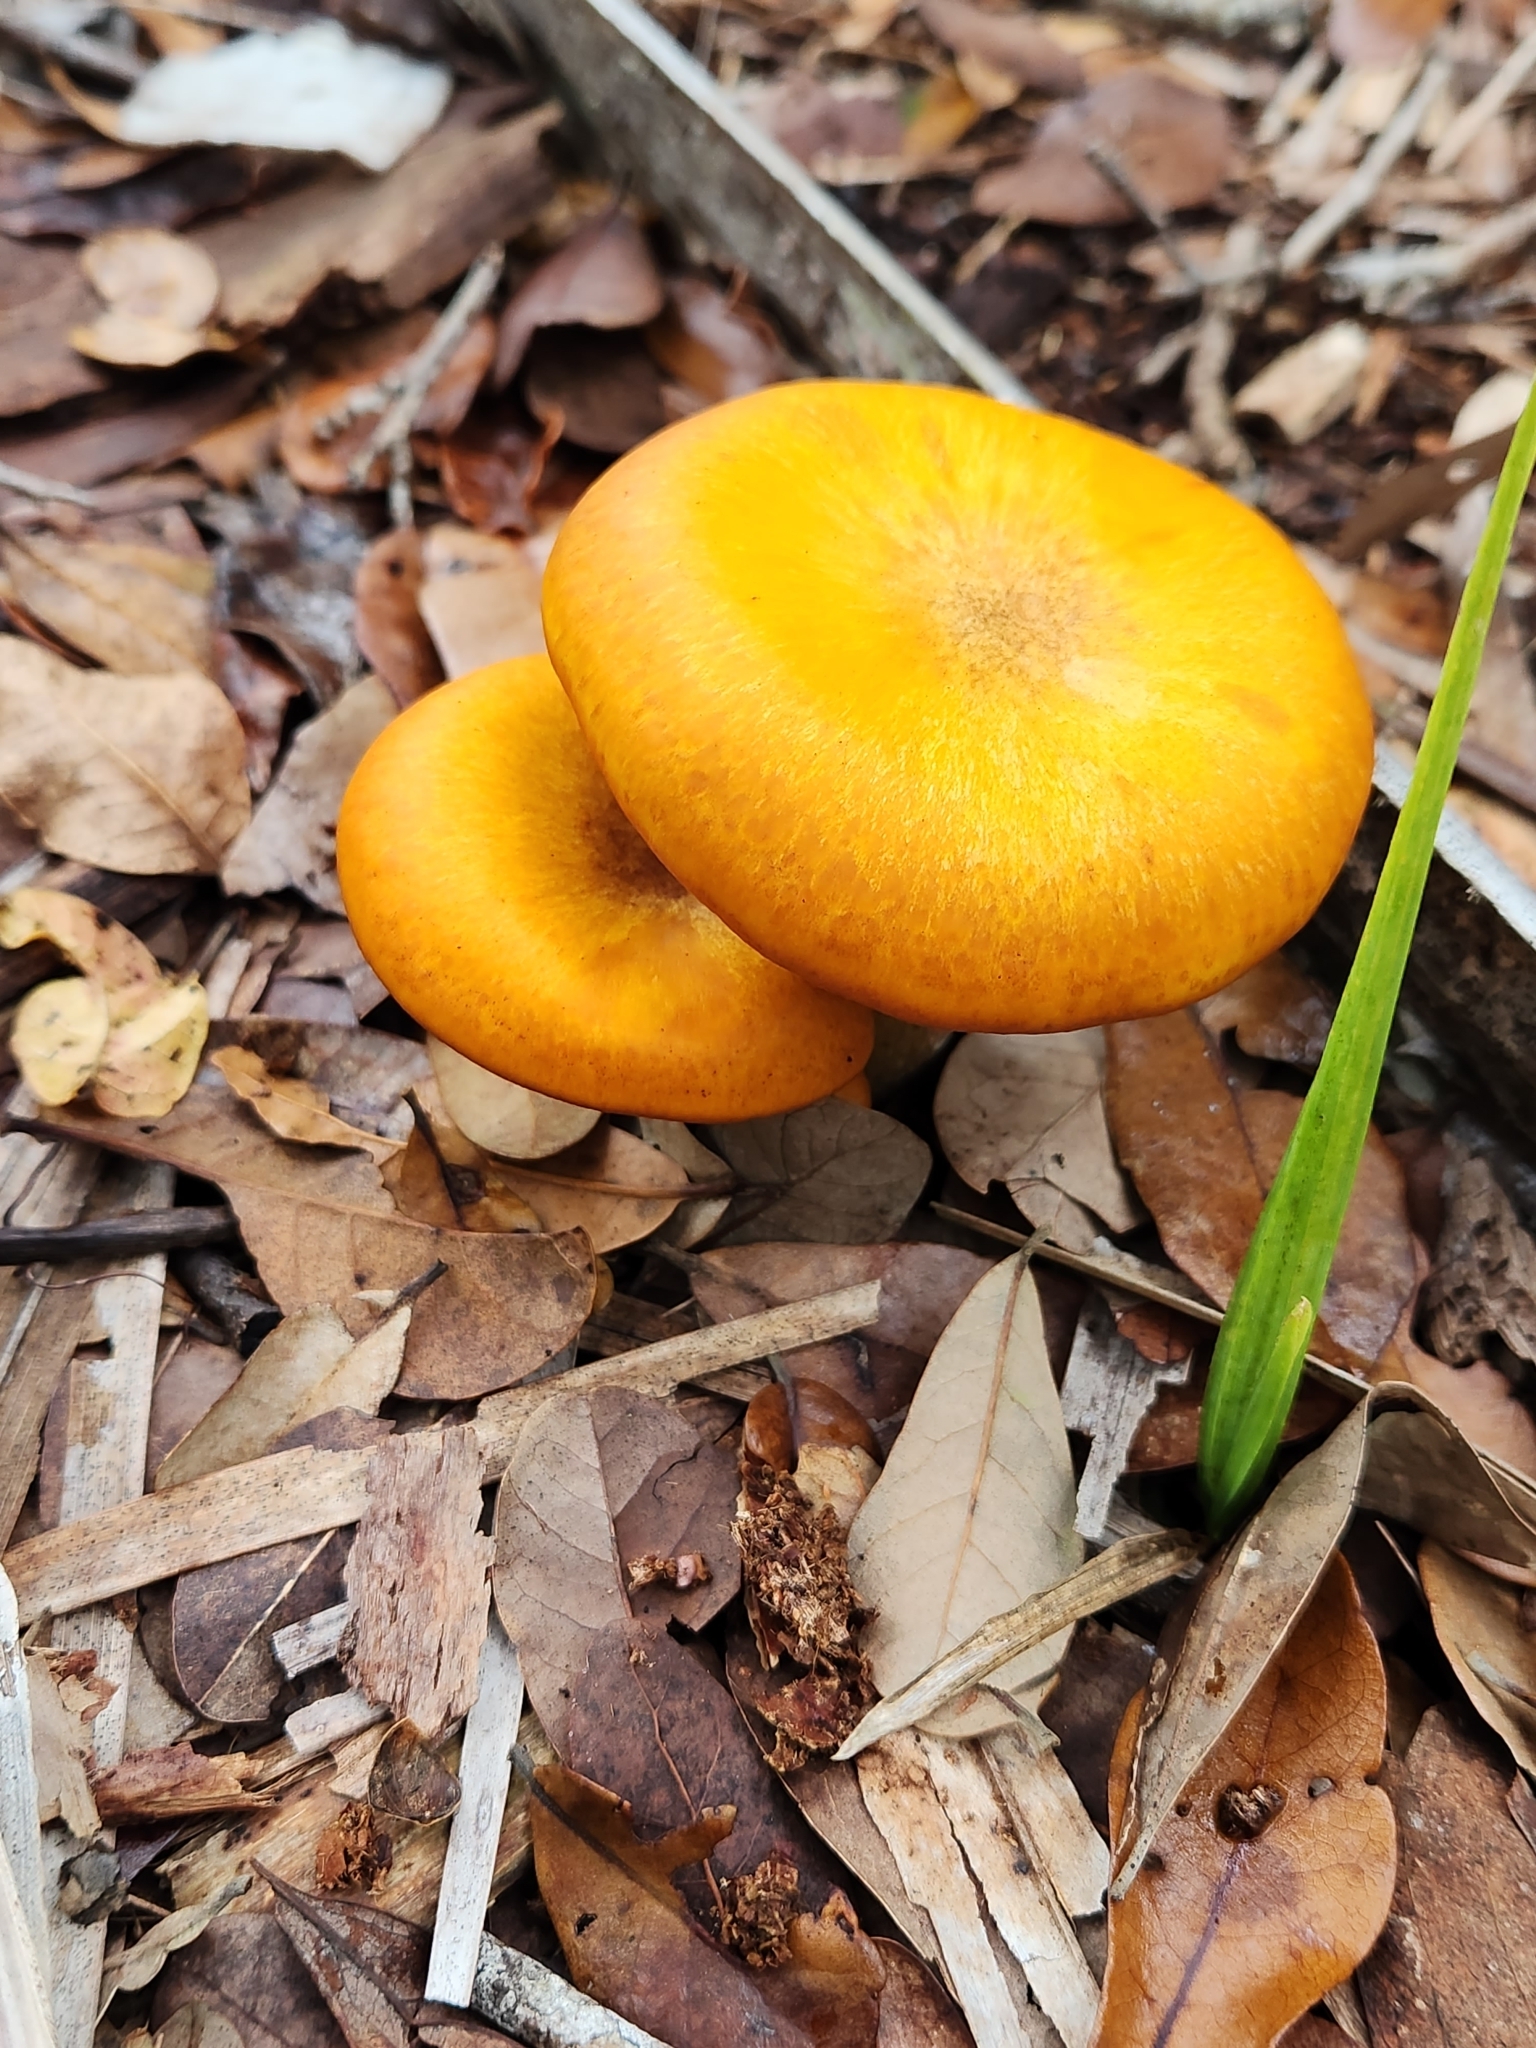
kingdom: Fungi
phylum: Basidiomycota
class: Agaricomycetes
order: Agaricales
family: Omphalotaceae
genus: Omphalotus
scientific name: Omphalotus subilludens
